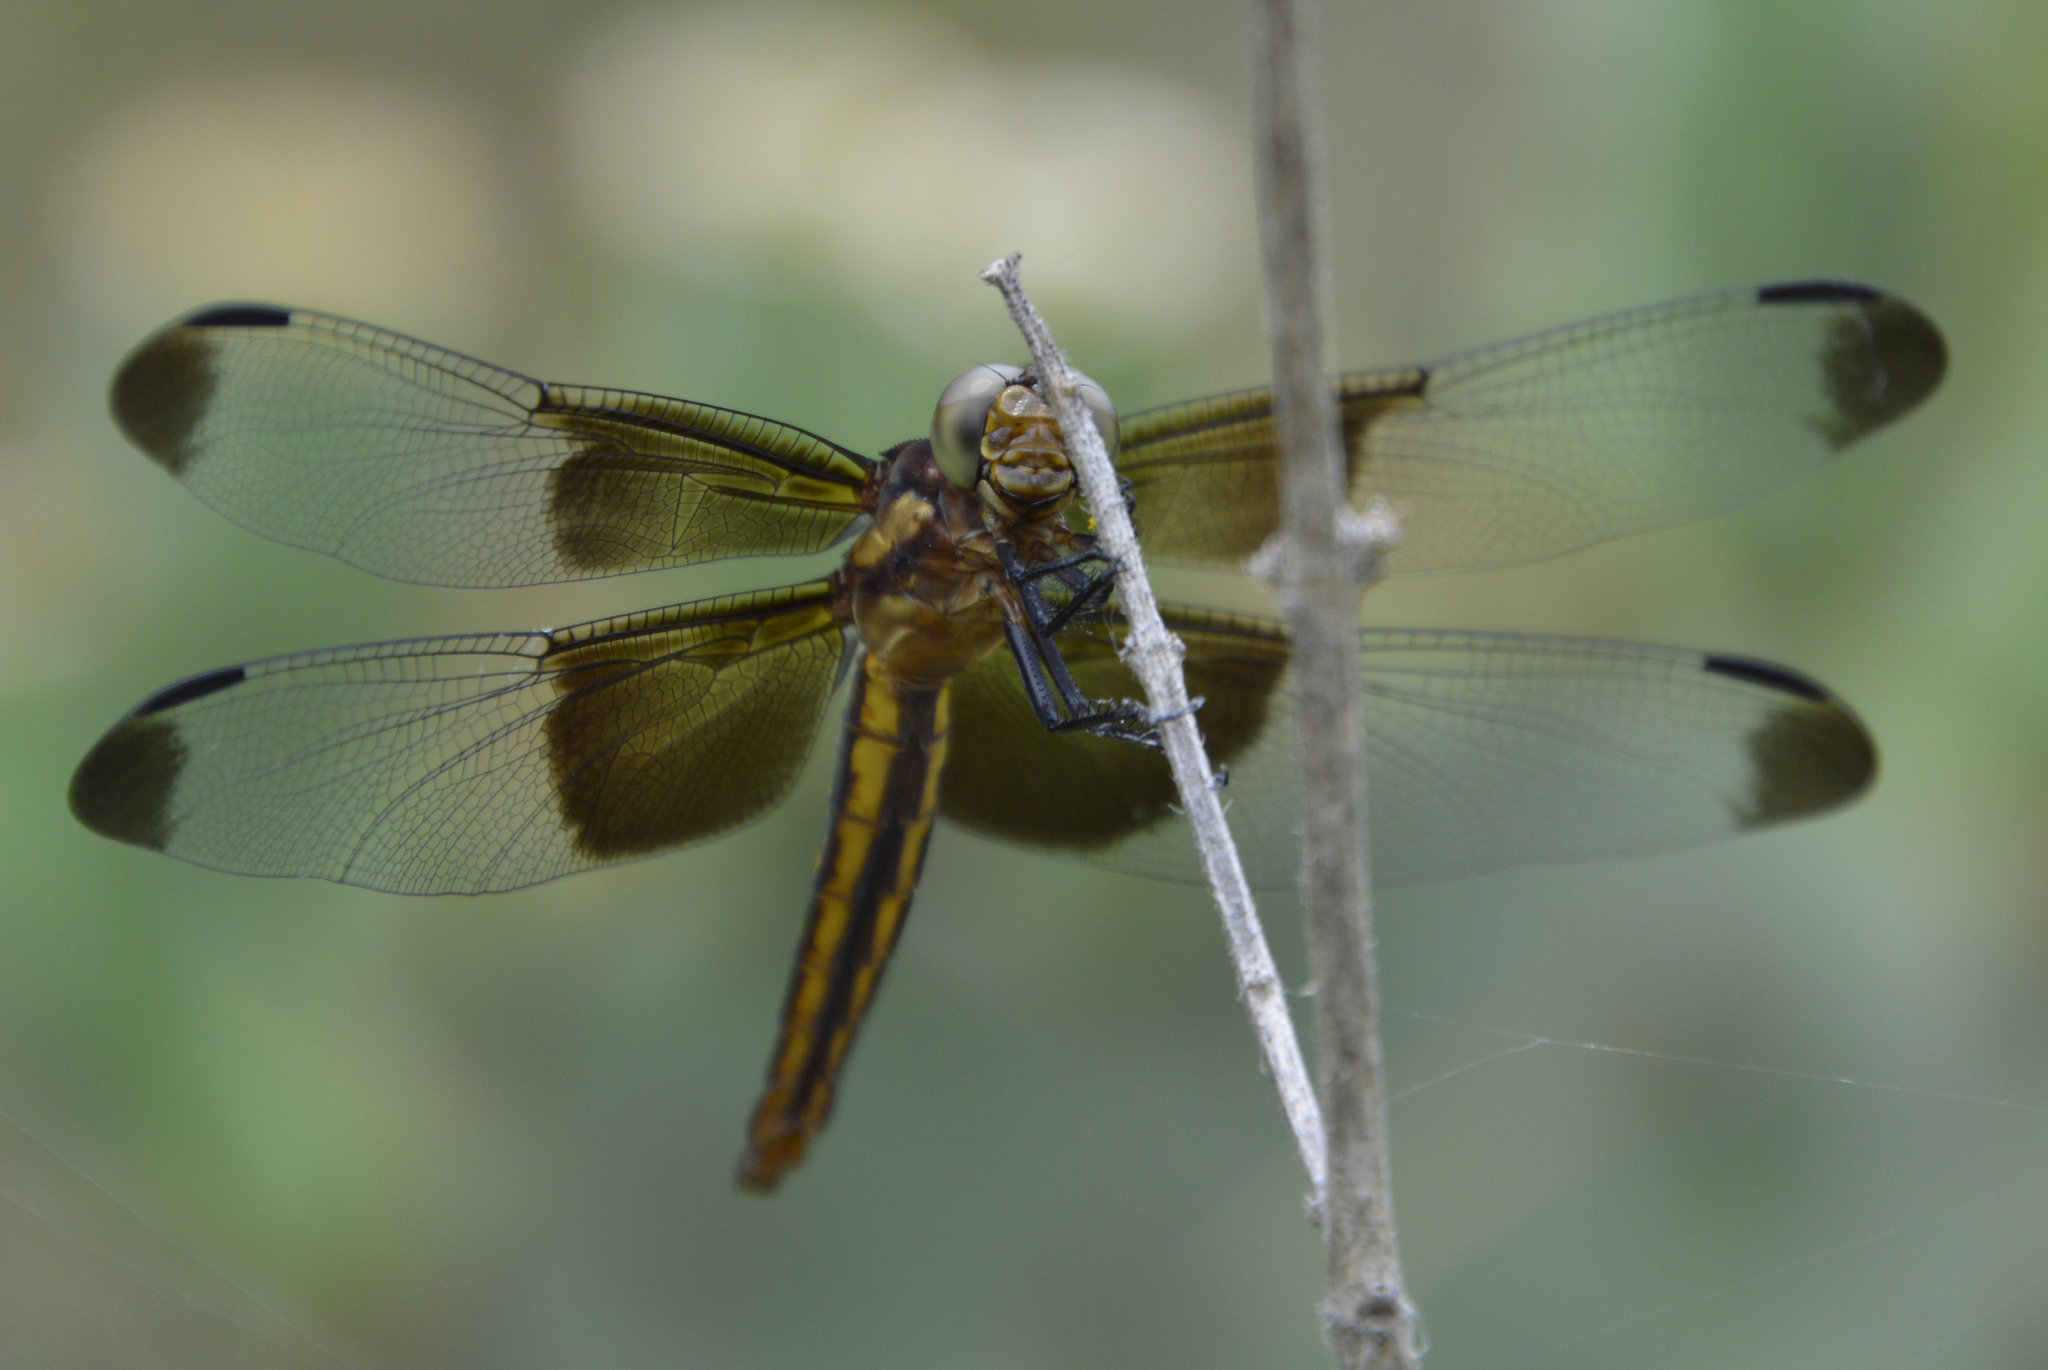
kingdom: Animalia
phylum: Arthropoda
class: Insecta
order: Odonata
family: Libellulidae
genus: Libellula
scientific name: Libellula luctuosa
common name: Widow skimmer
